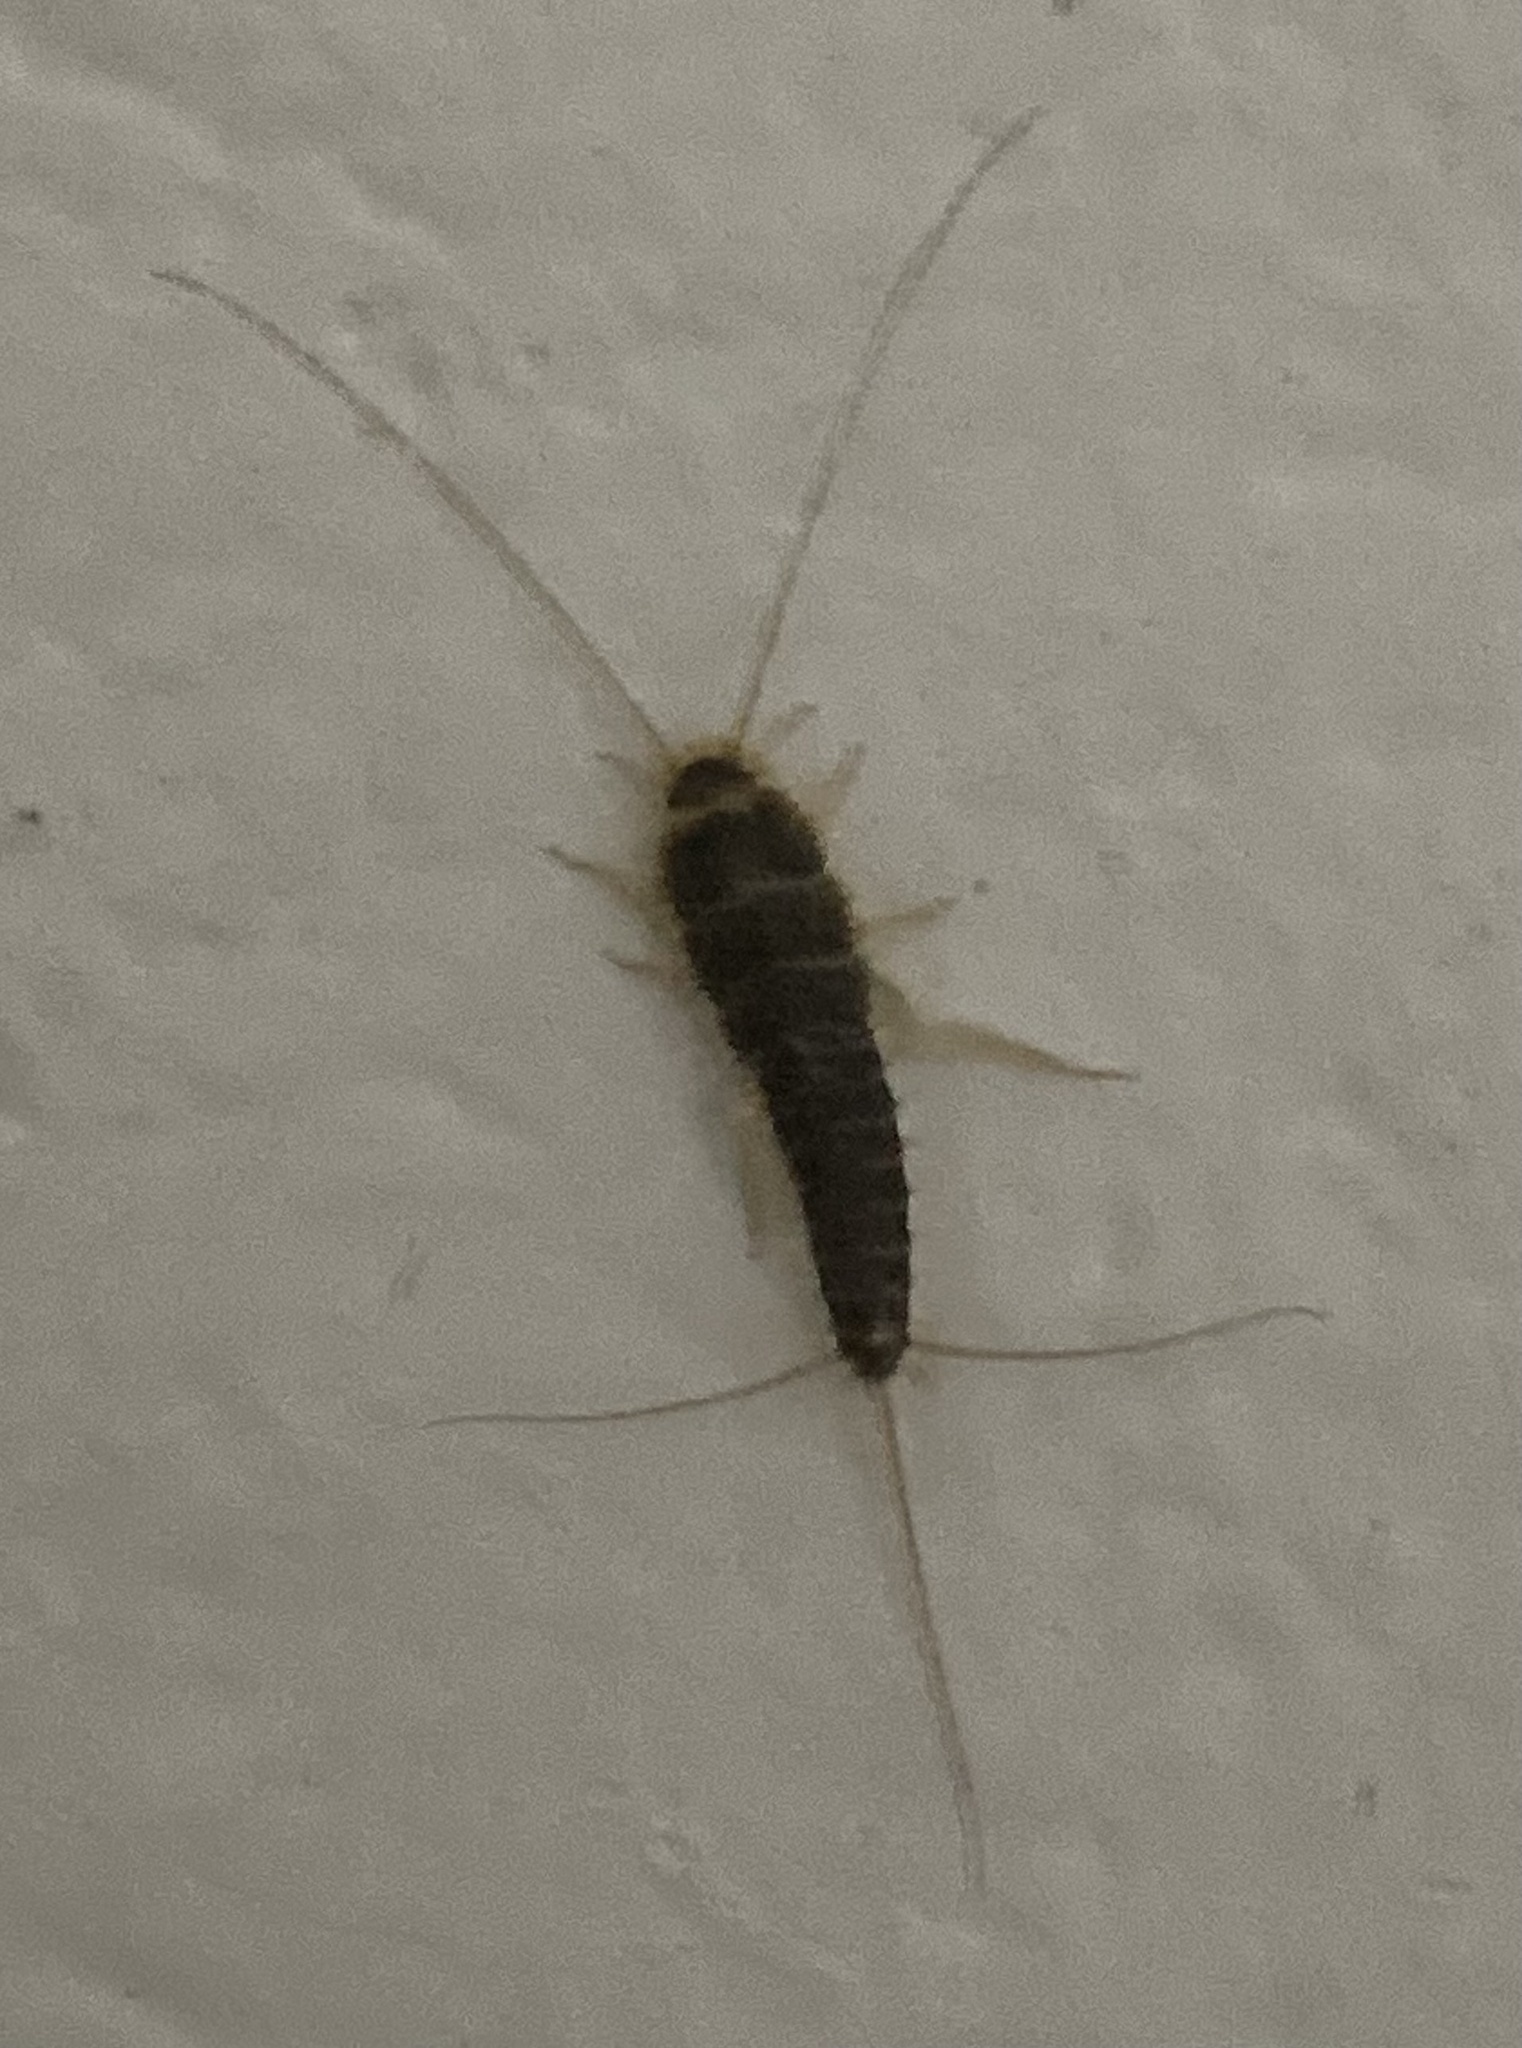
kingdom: Animalia
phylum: Arthropoda
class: Insecta
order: Zygentoma
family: Lepismatidae
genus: Ctenolepisma
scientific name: Ctenolepisma longicaudatum
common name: Silverfish
